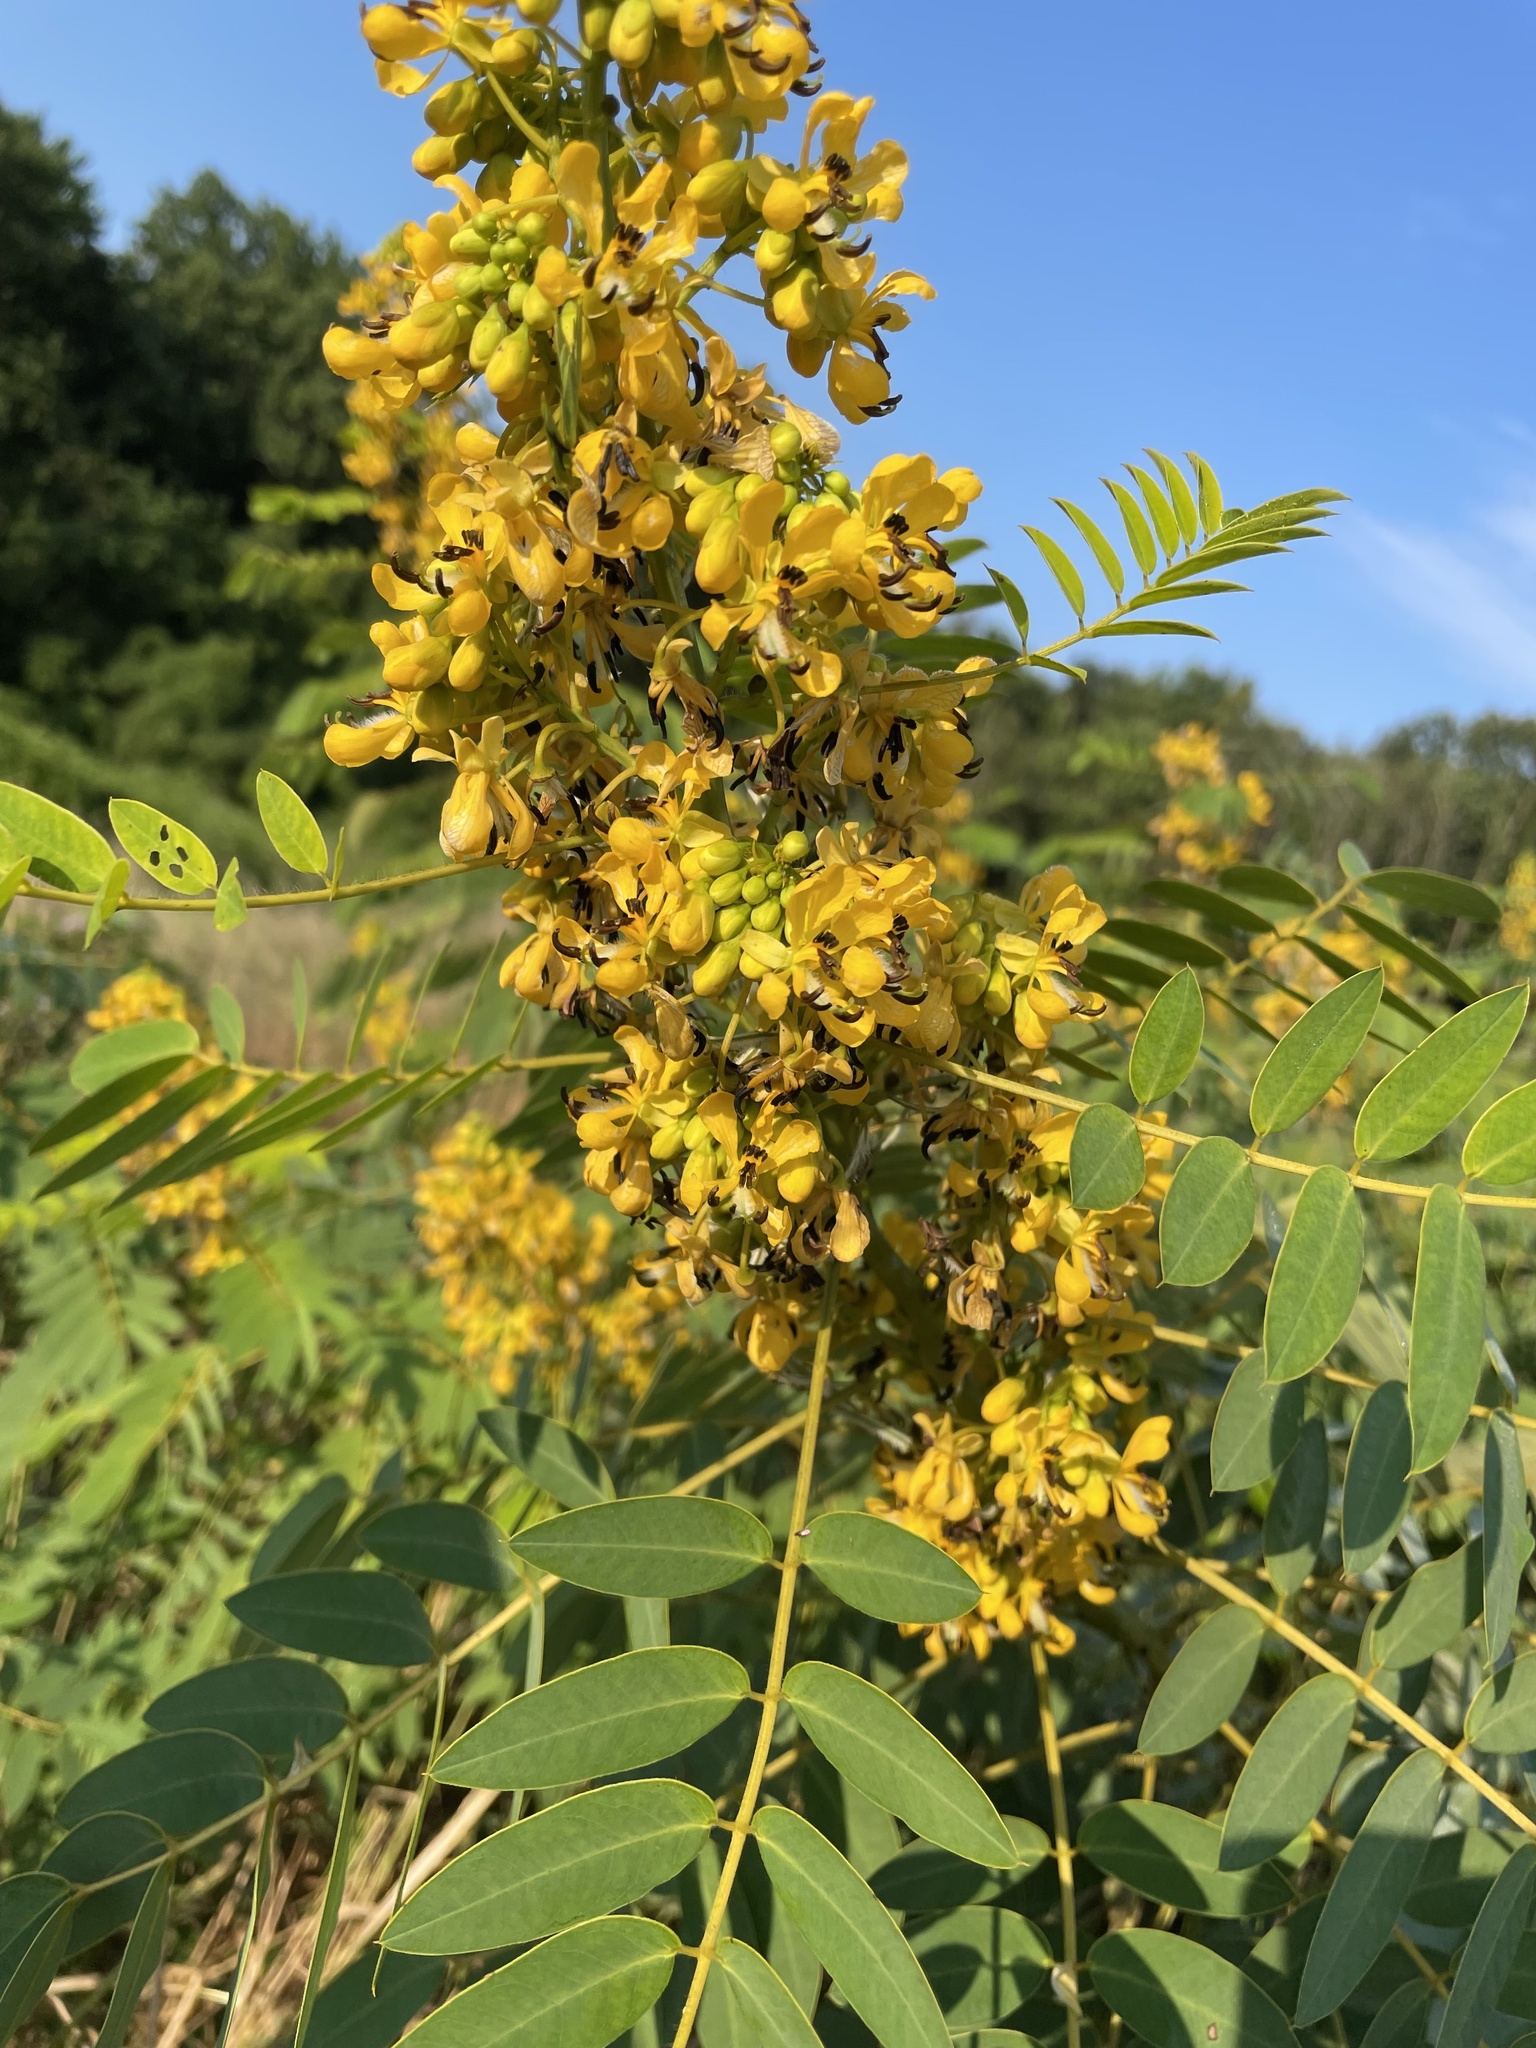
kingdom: Plantae
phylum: Tracheophyta
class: Magnoliopsida
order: Fabales
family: Fabaceae
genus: Senna
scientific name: Senna hebecarpa
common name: Wild senna
